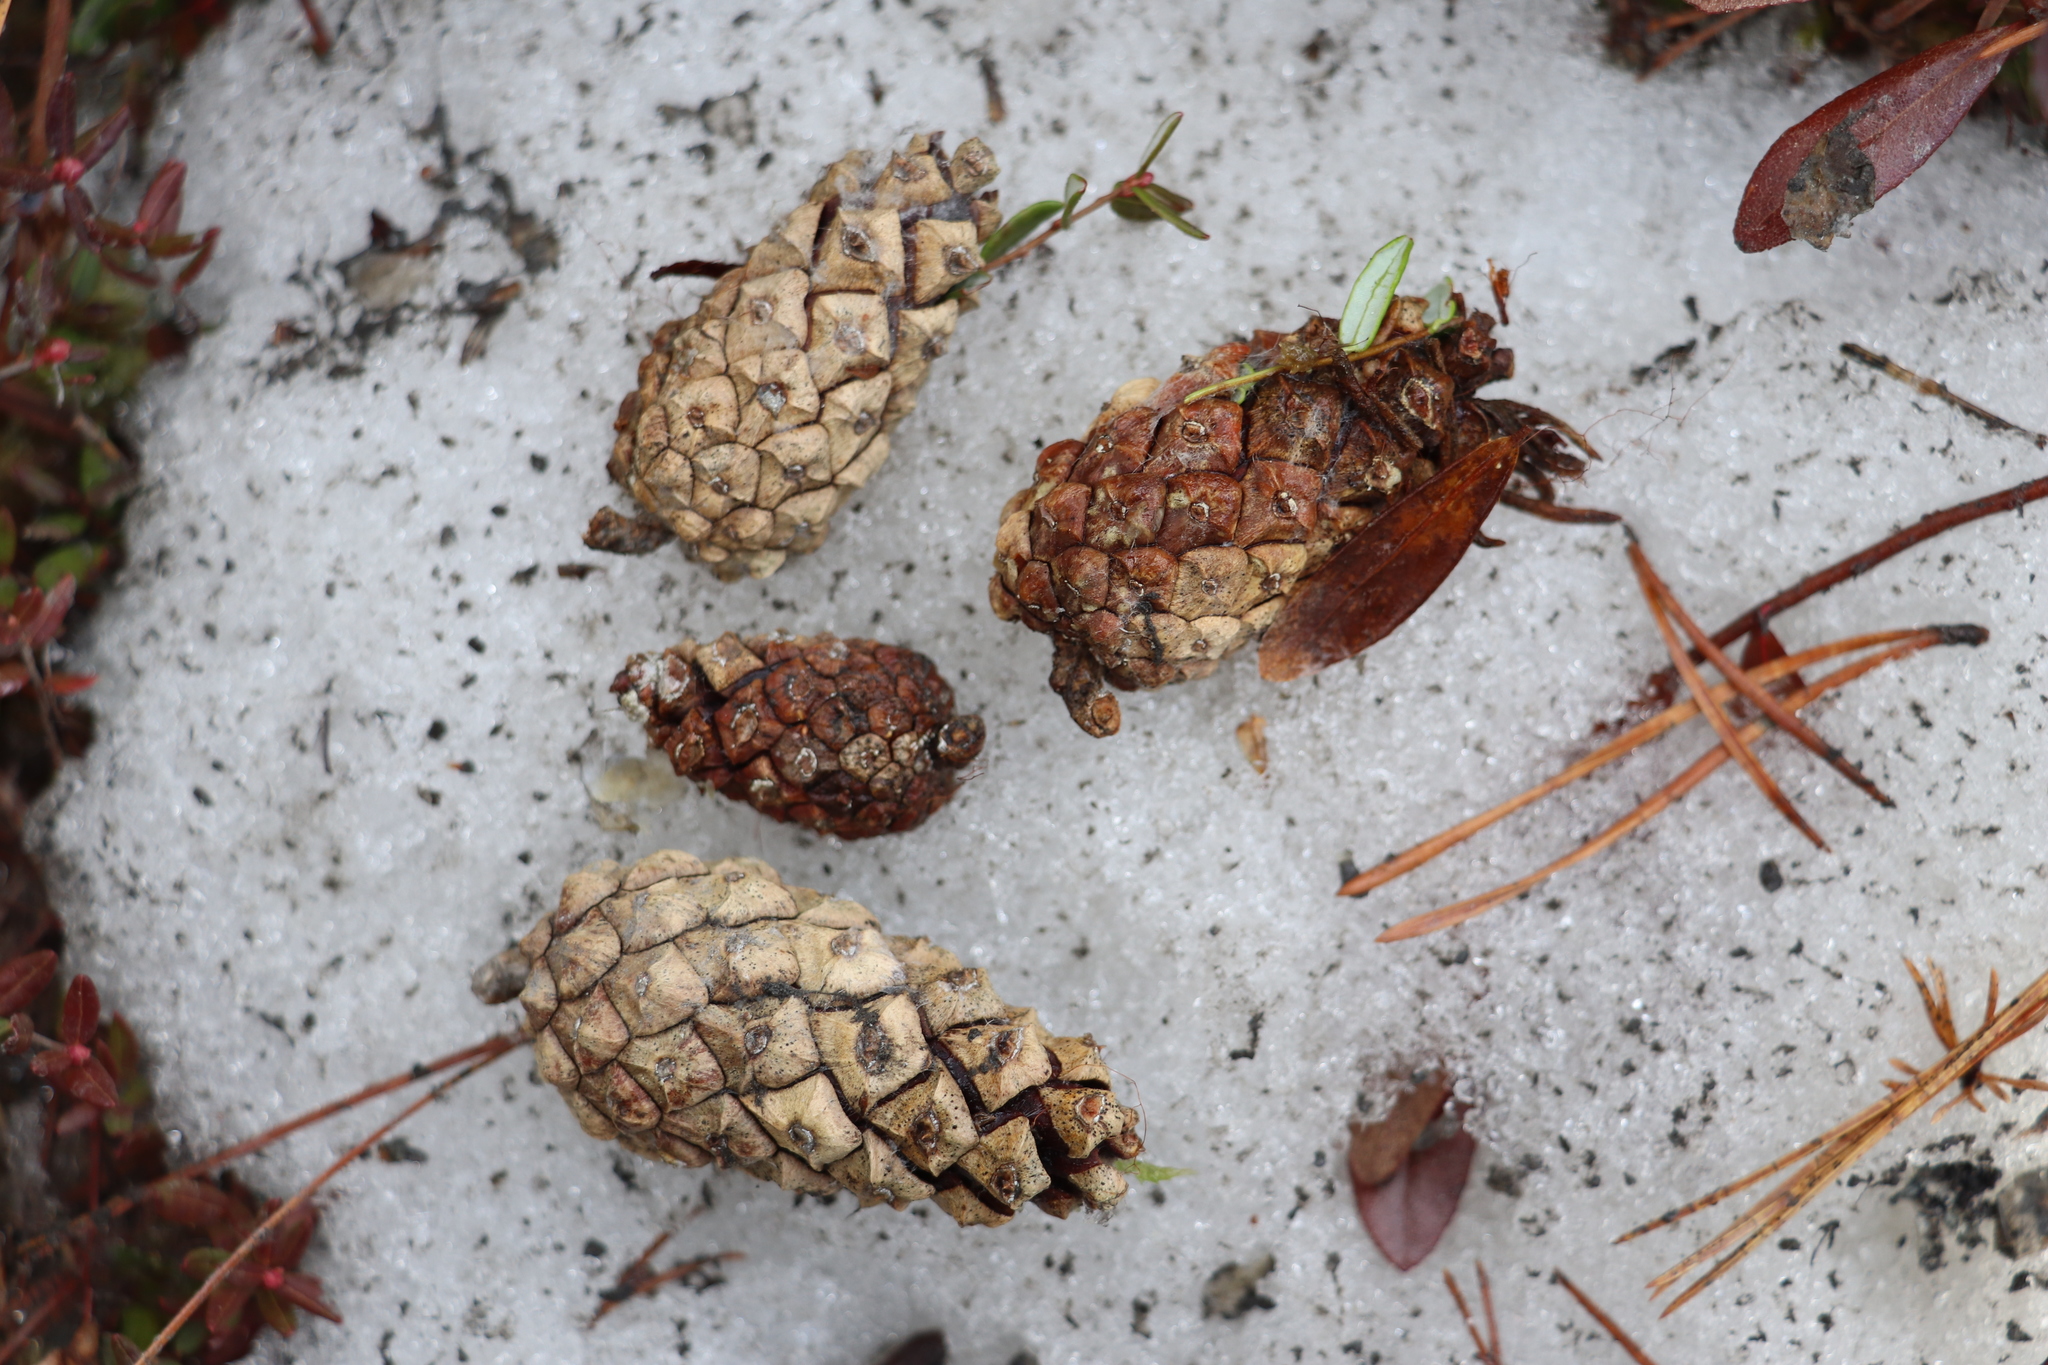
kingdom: Plantae
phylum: Tracheophyta
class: Pinopsida
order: Pinales
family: Pinaceae
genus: Pinus
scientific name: Pinus sylvestris
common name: Scots pine
